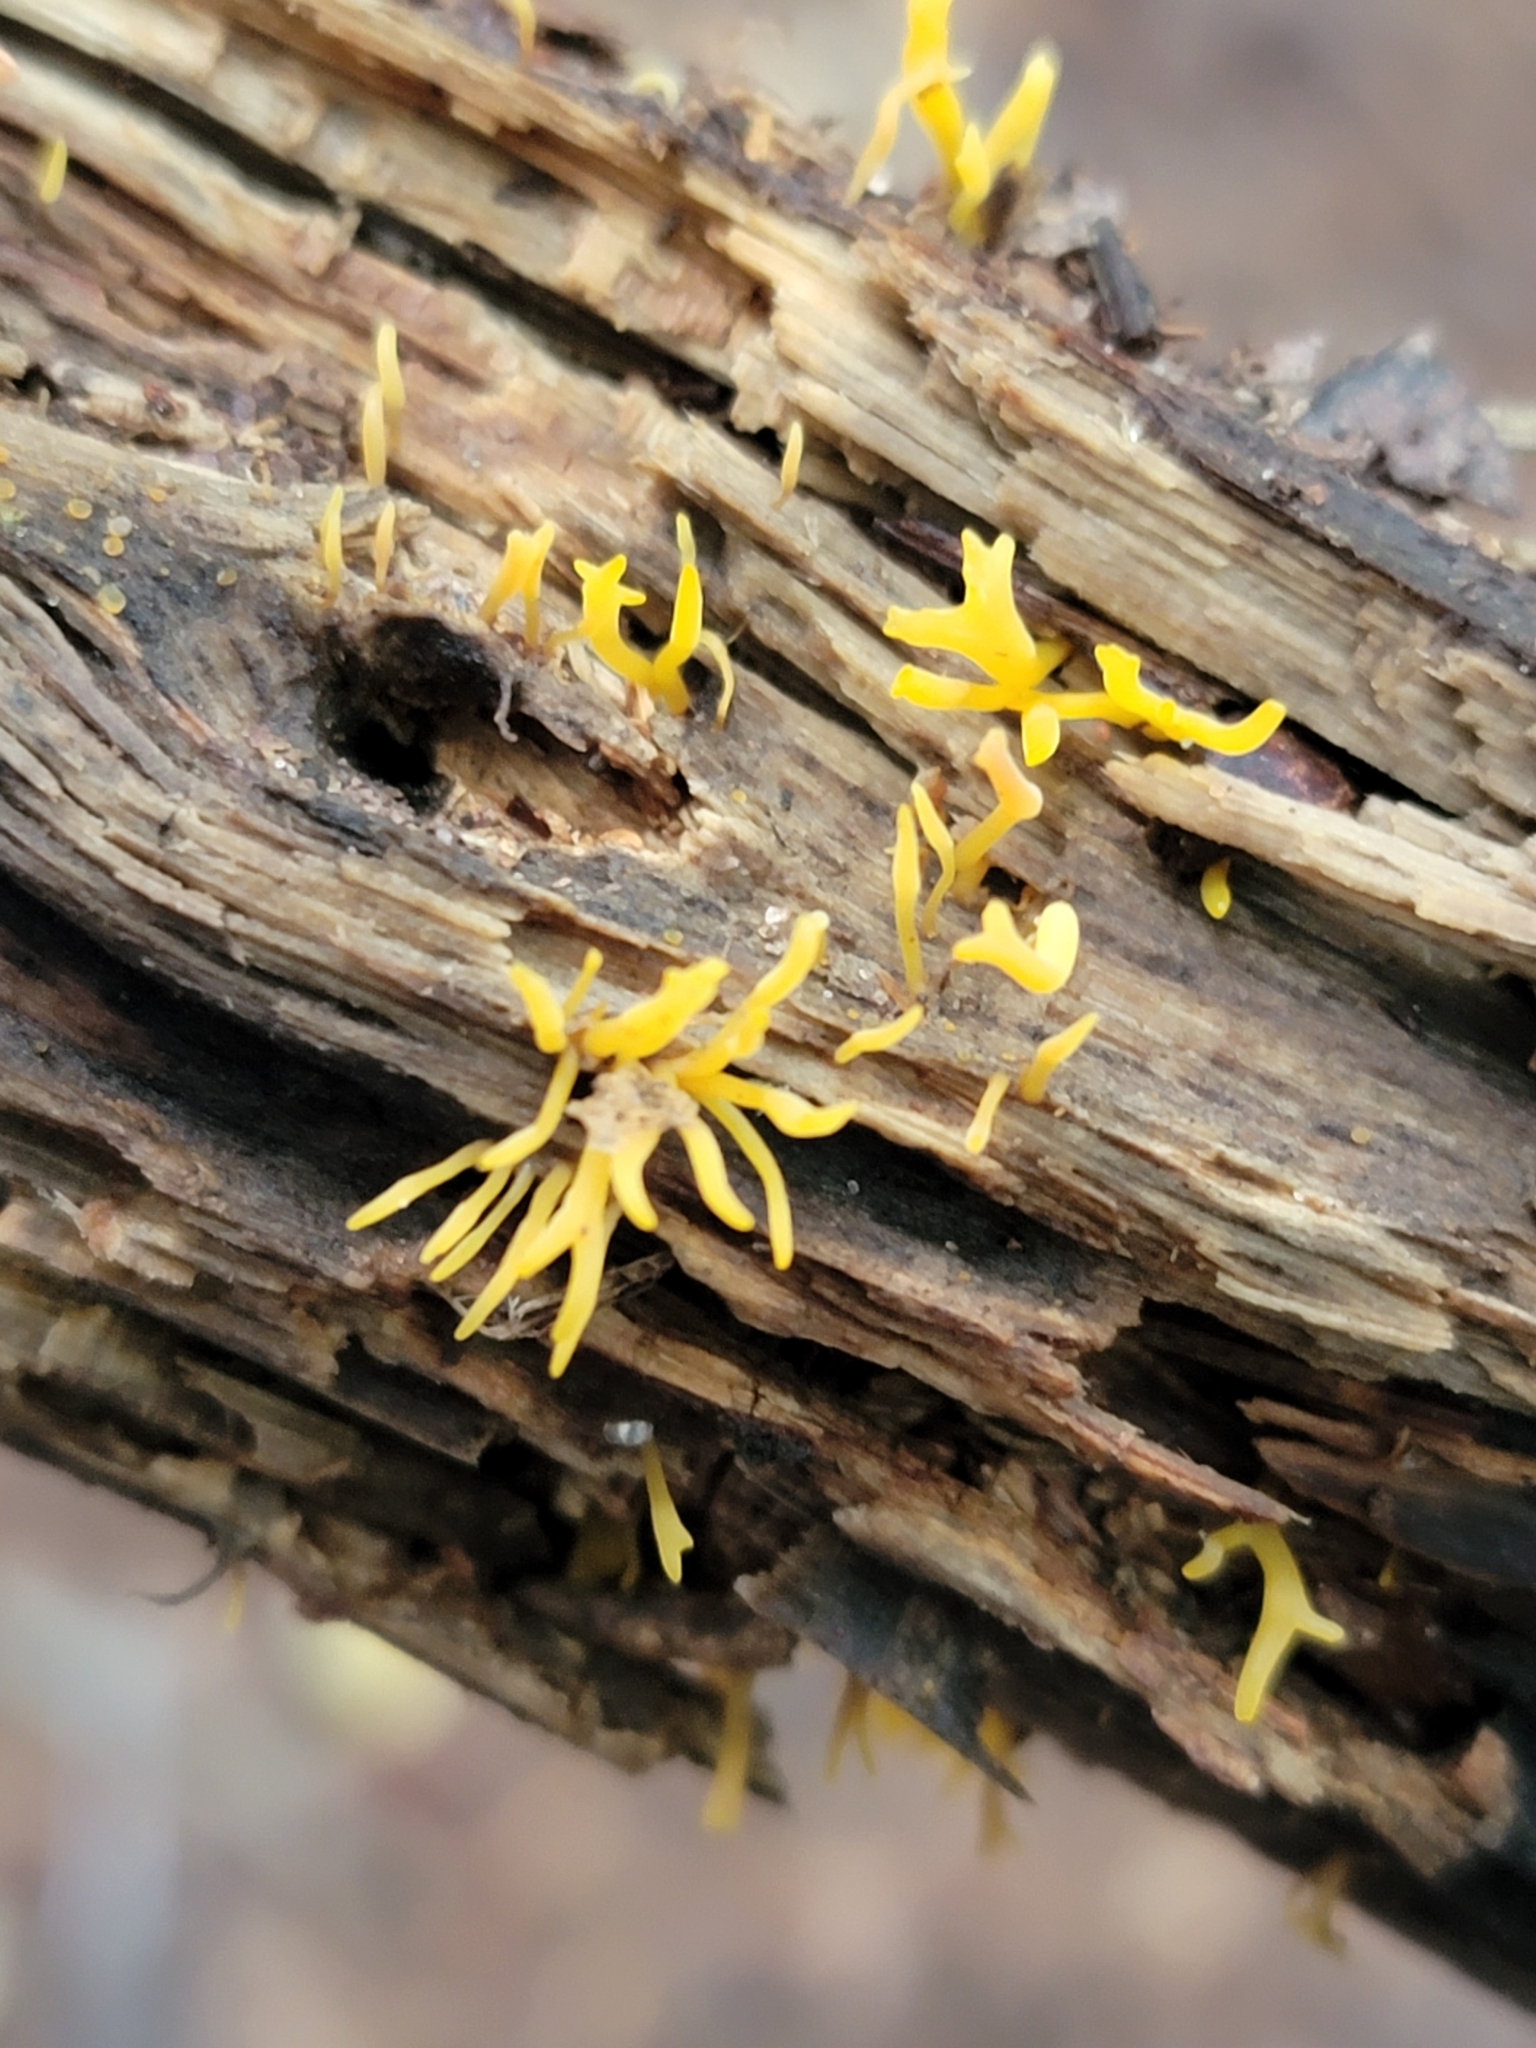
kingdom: Fungi
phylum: Basidiomycota
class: Dacrymycetes
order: Dacrymycetales
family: Dacrymycetaceae
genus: Calocera
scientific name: Calocera cornea
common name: Small stagshorn
